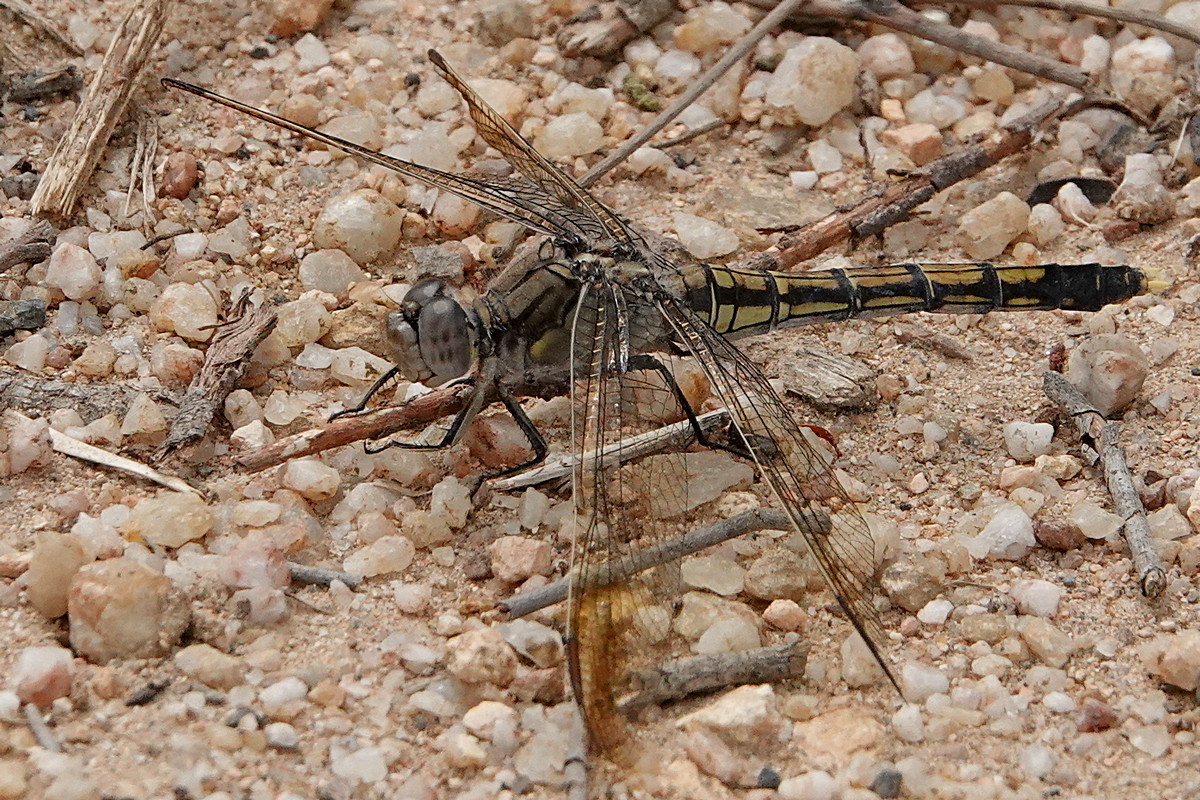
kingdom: Animalia
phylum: Arthropoda
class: Insecta
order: Odonata
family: Libellulidae
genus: Orthetrum
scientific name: Orthetrum caledonicum
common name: Blue skimmer
